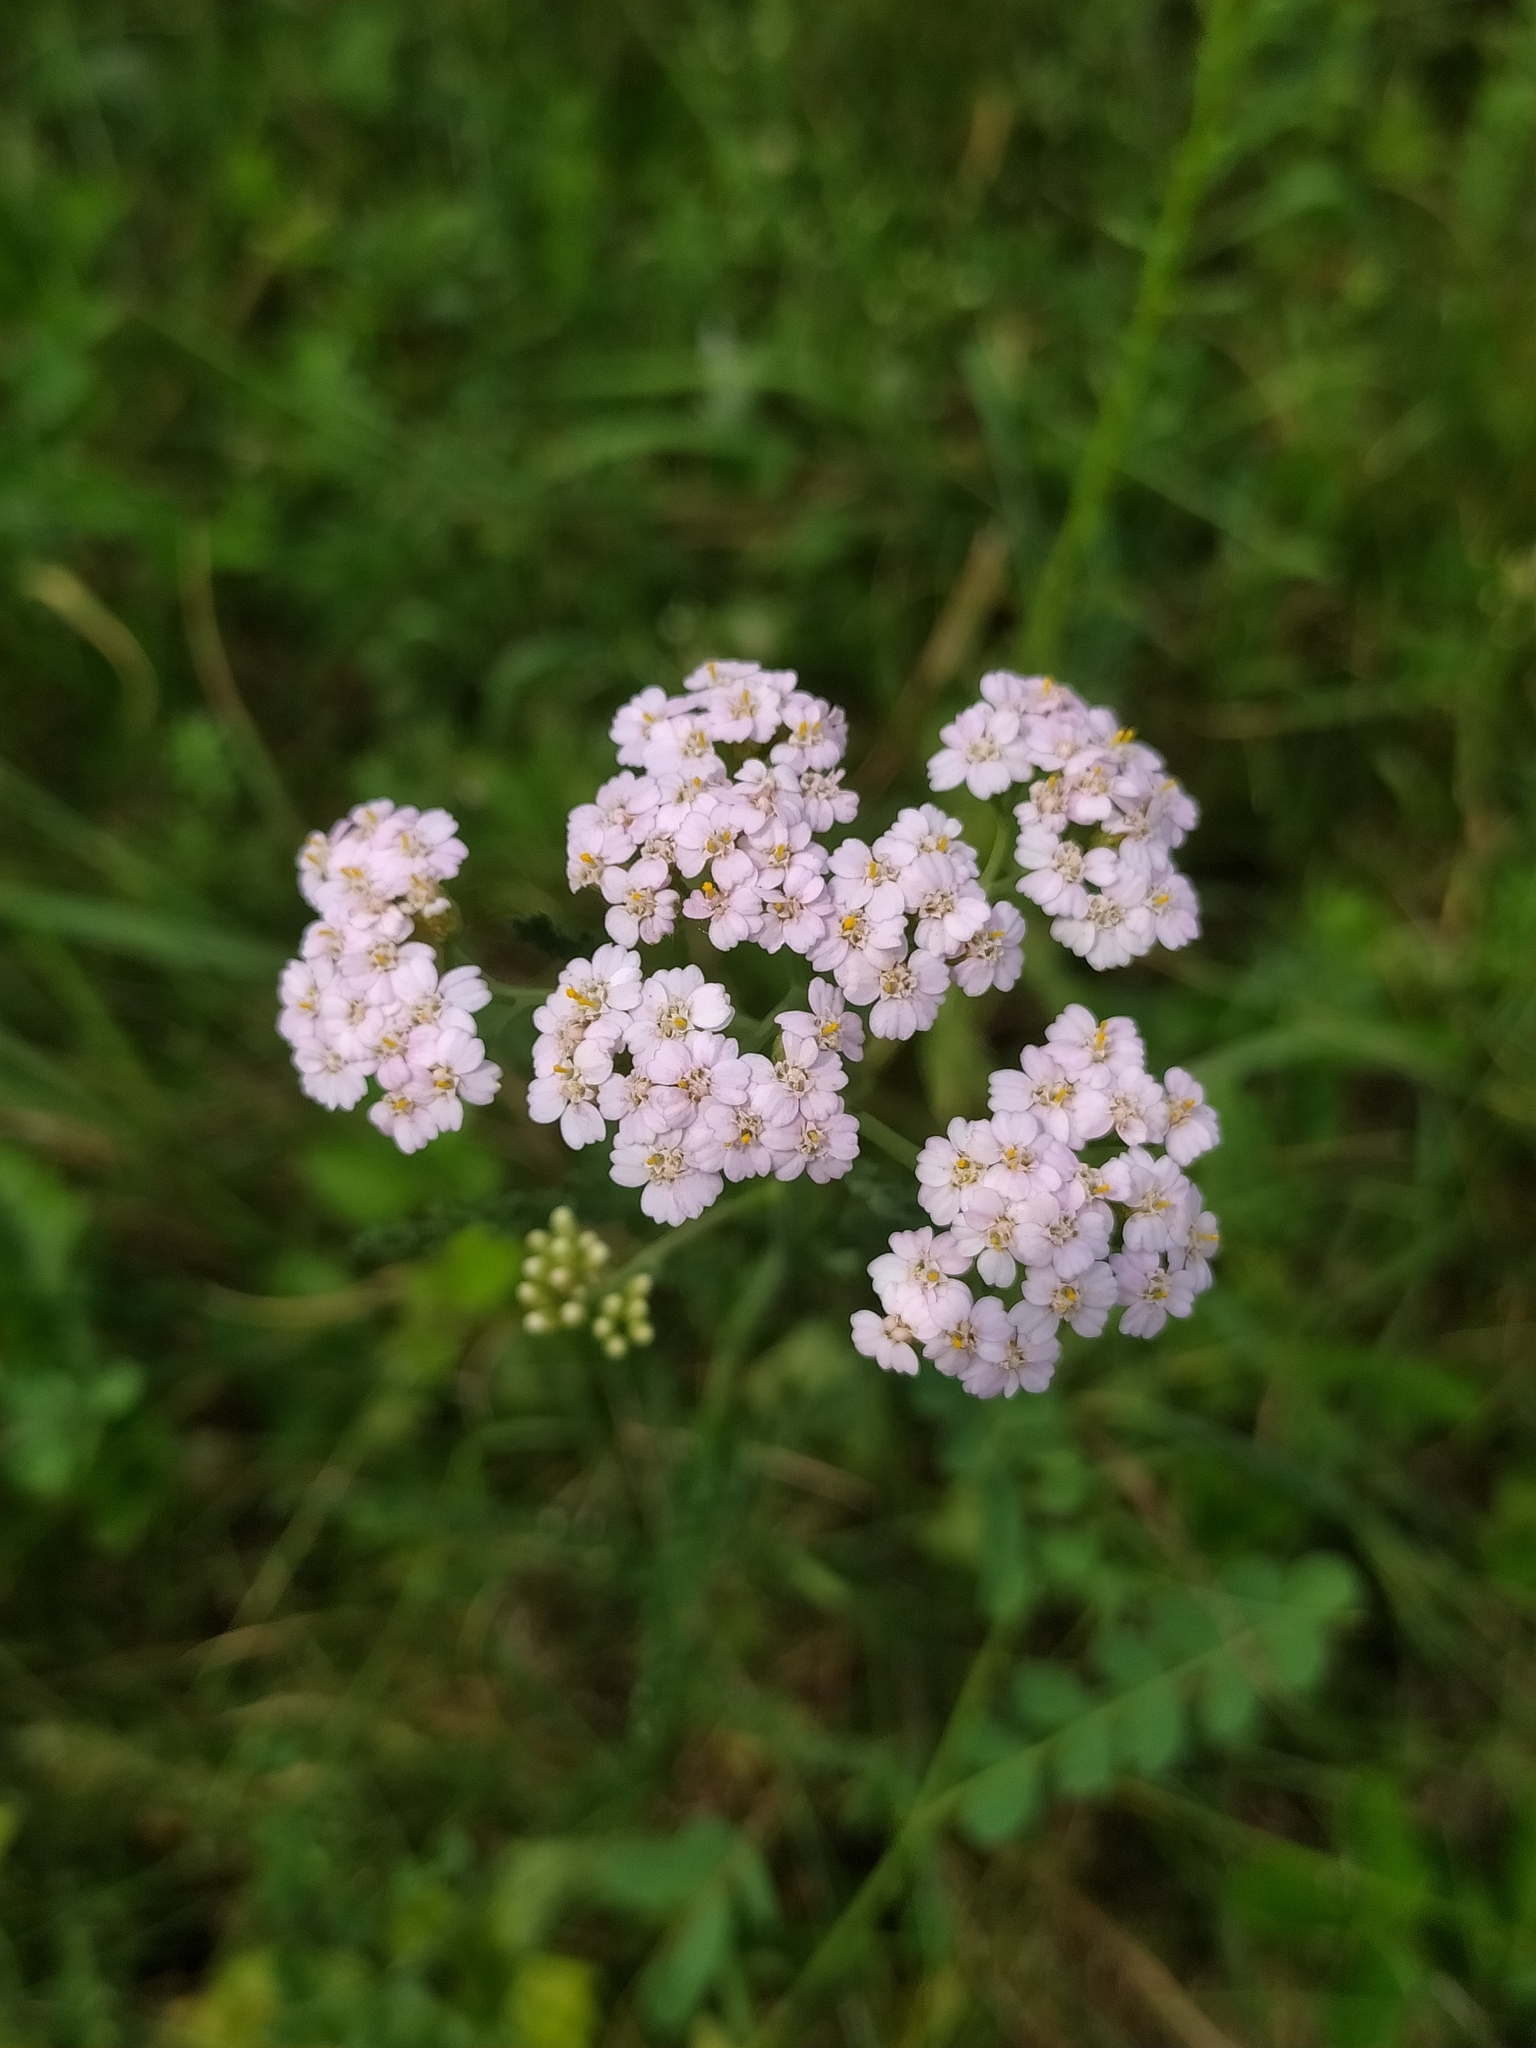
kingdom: Plantae
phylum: Tracheophyta
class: Magnoliopsida
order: Asterales
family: Asteraceae
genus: Achillea
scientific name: Achillea millefolium
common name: Yarrow
